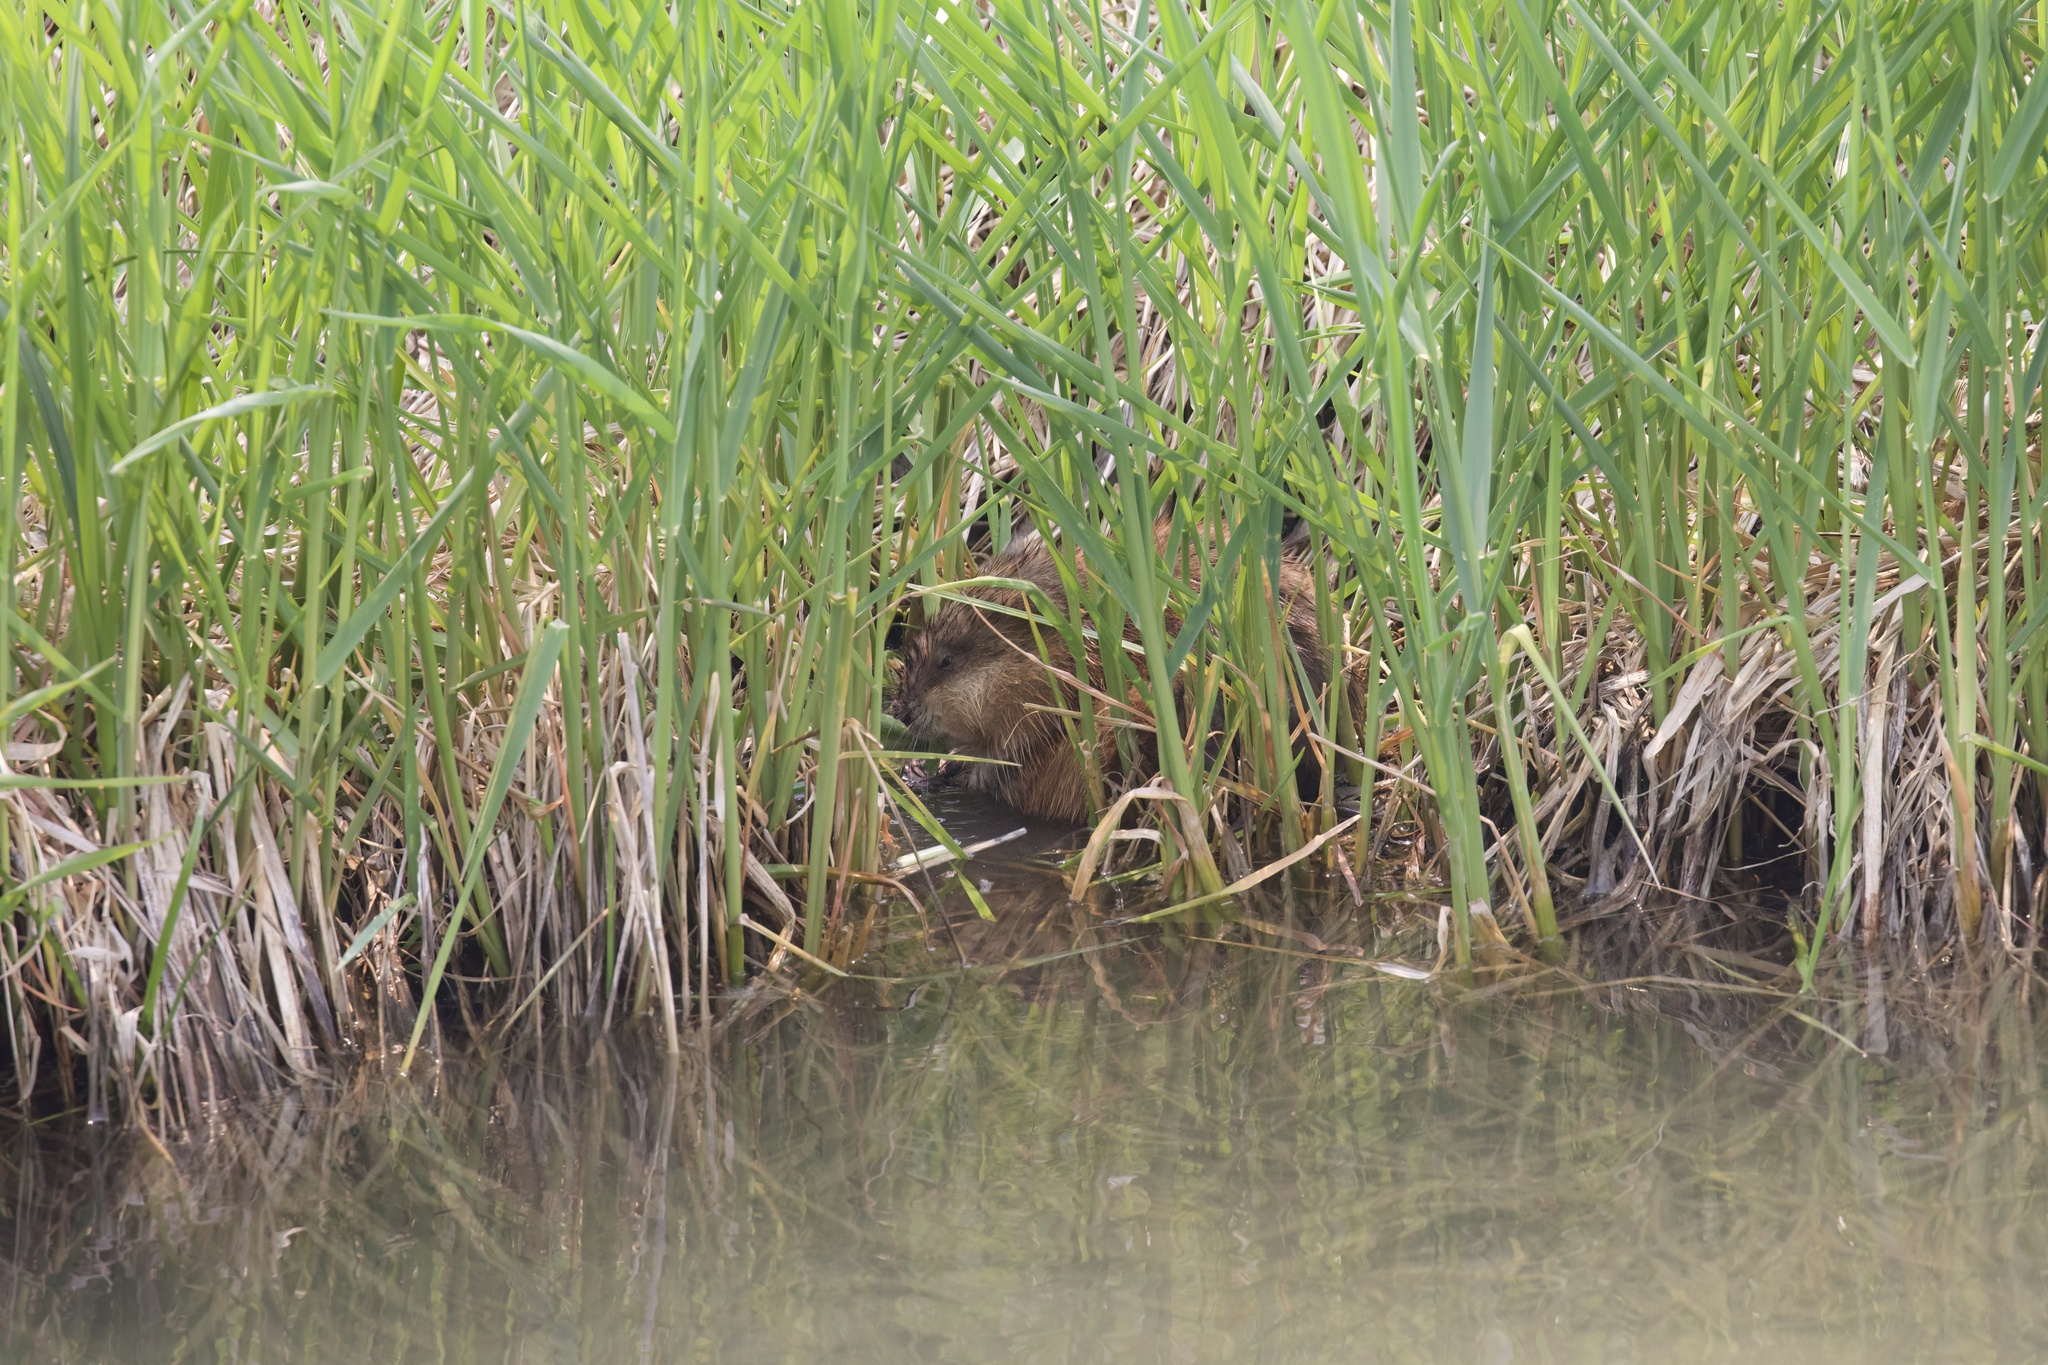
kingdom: Animalia
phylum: Chordata
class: Mammalia
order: Rodentia
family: Cricetidae
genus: Ondatra
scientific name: Ondatra zibethicus
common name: Muskrat
